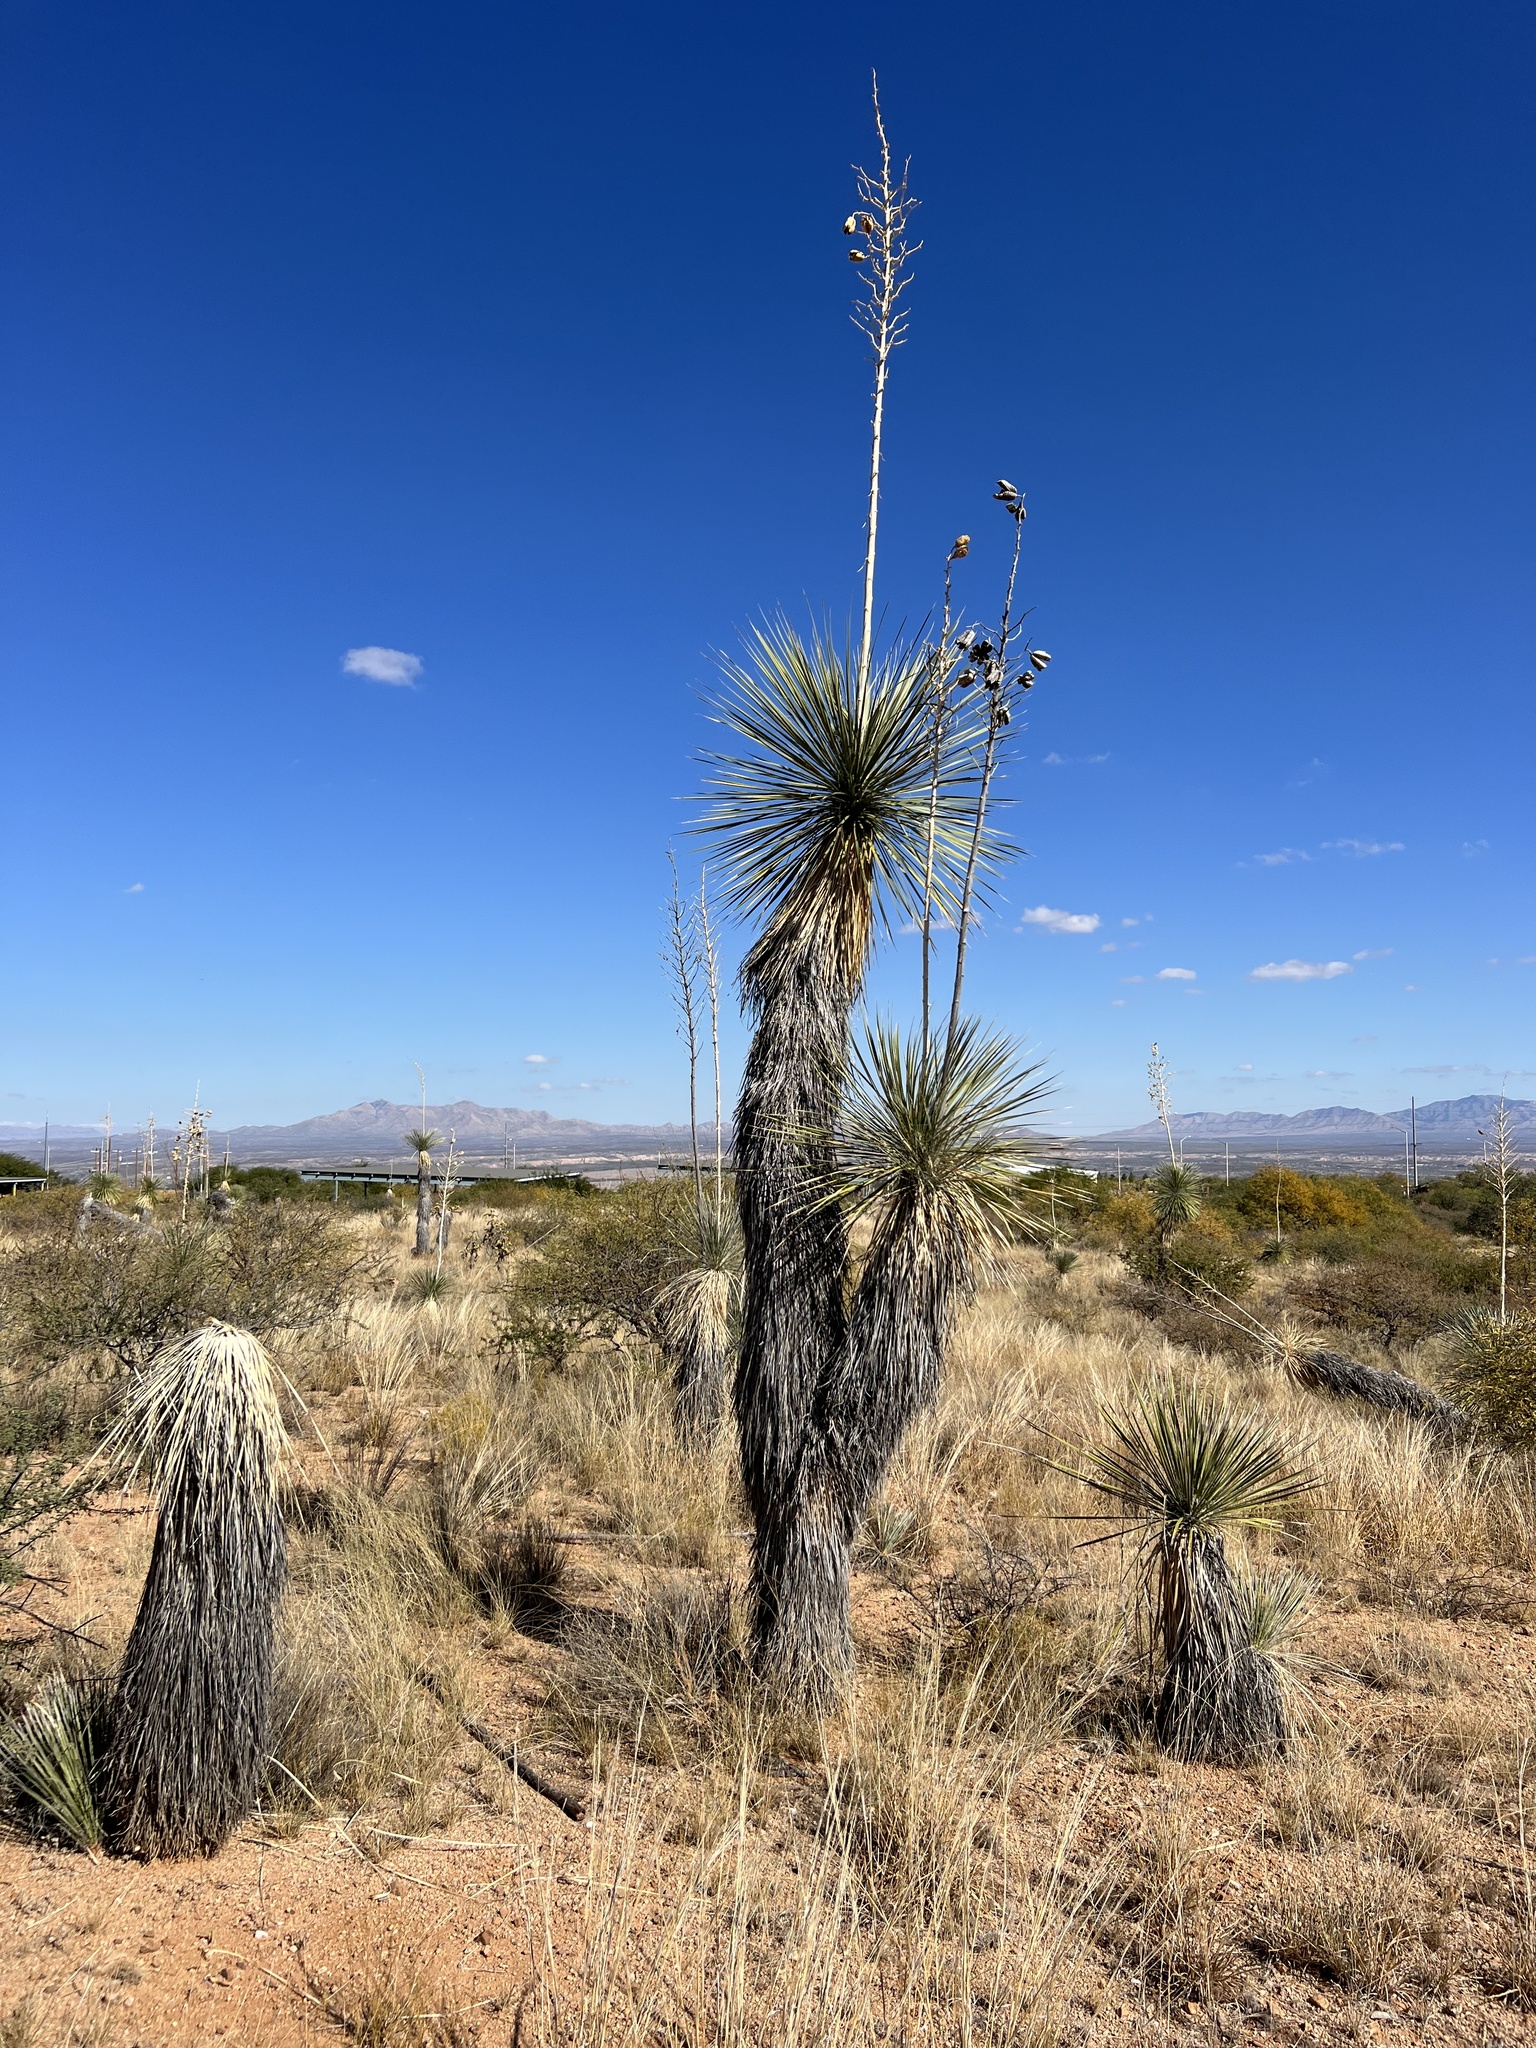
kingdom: Plantae
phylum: Tracheophyta
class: Liliopsida
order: Asparagales
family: Asparagaceae
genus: Yucca
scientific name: Yucca elata
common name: Palmella
